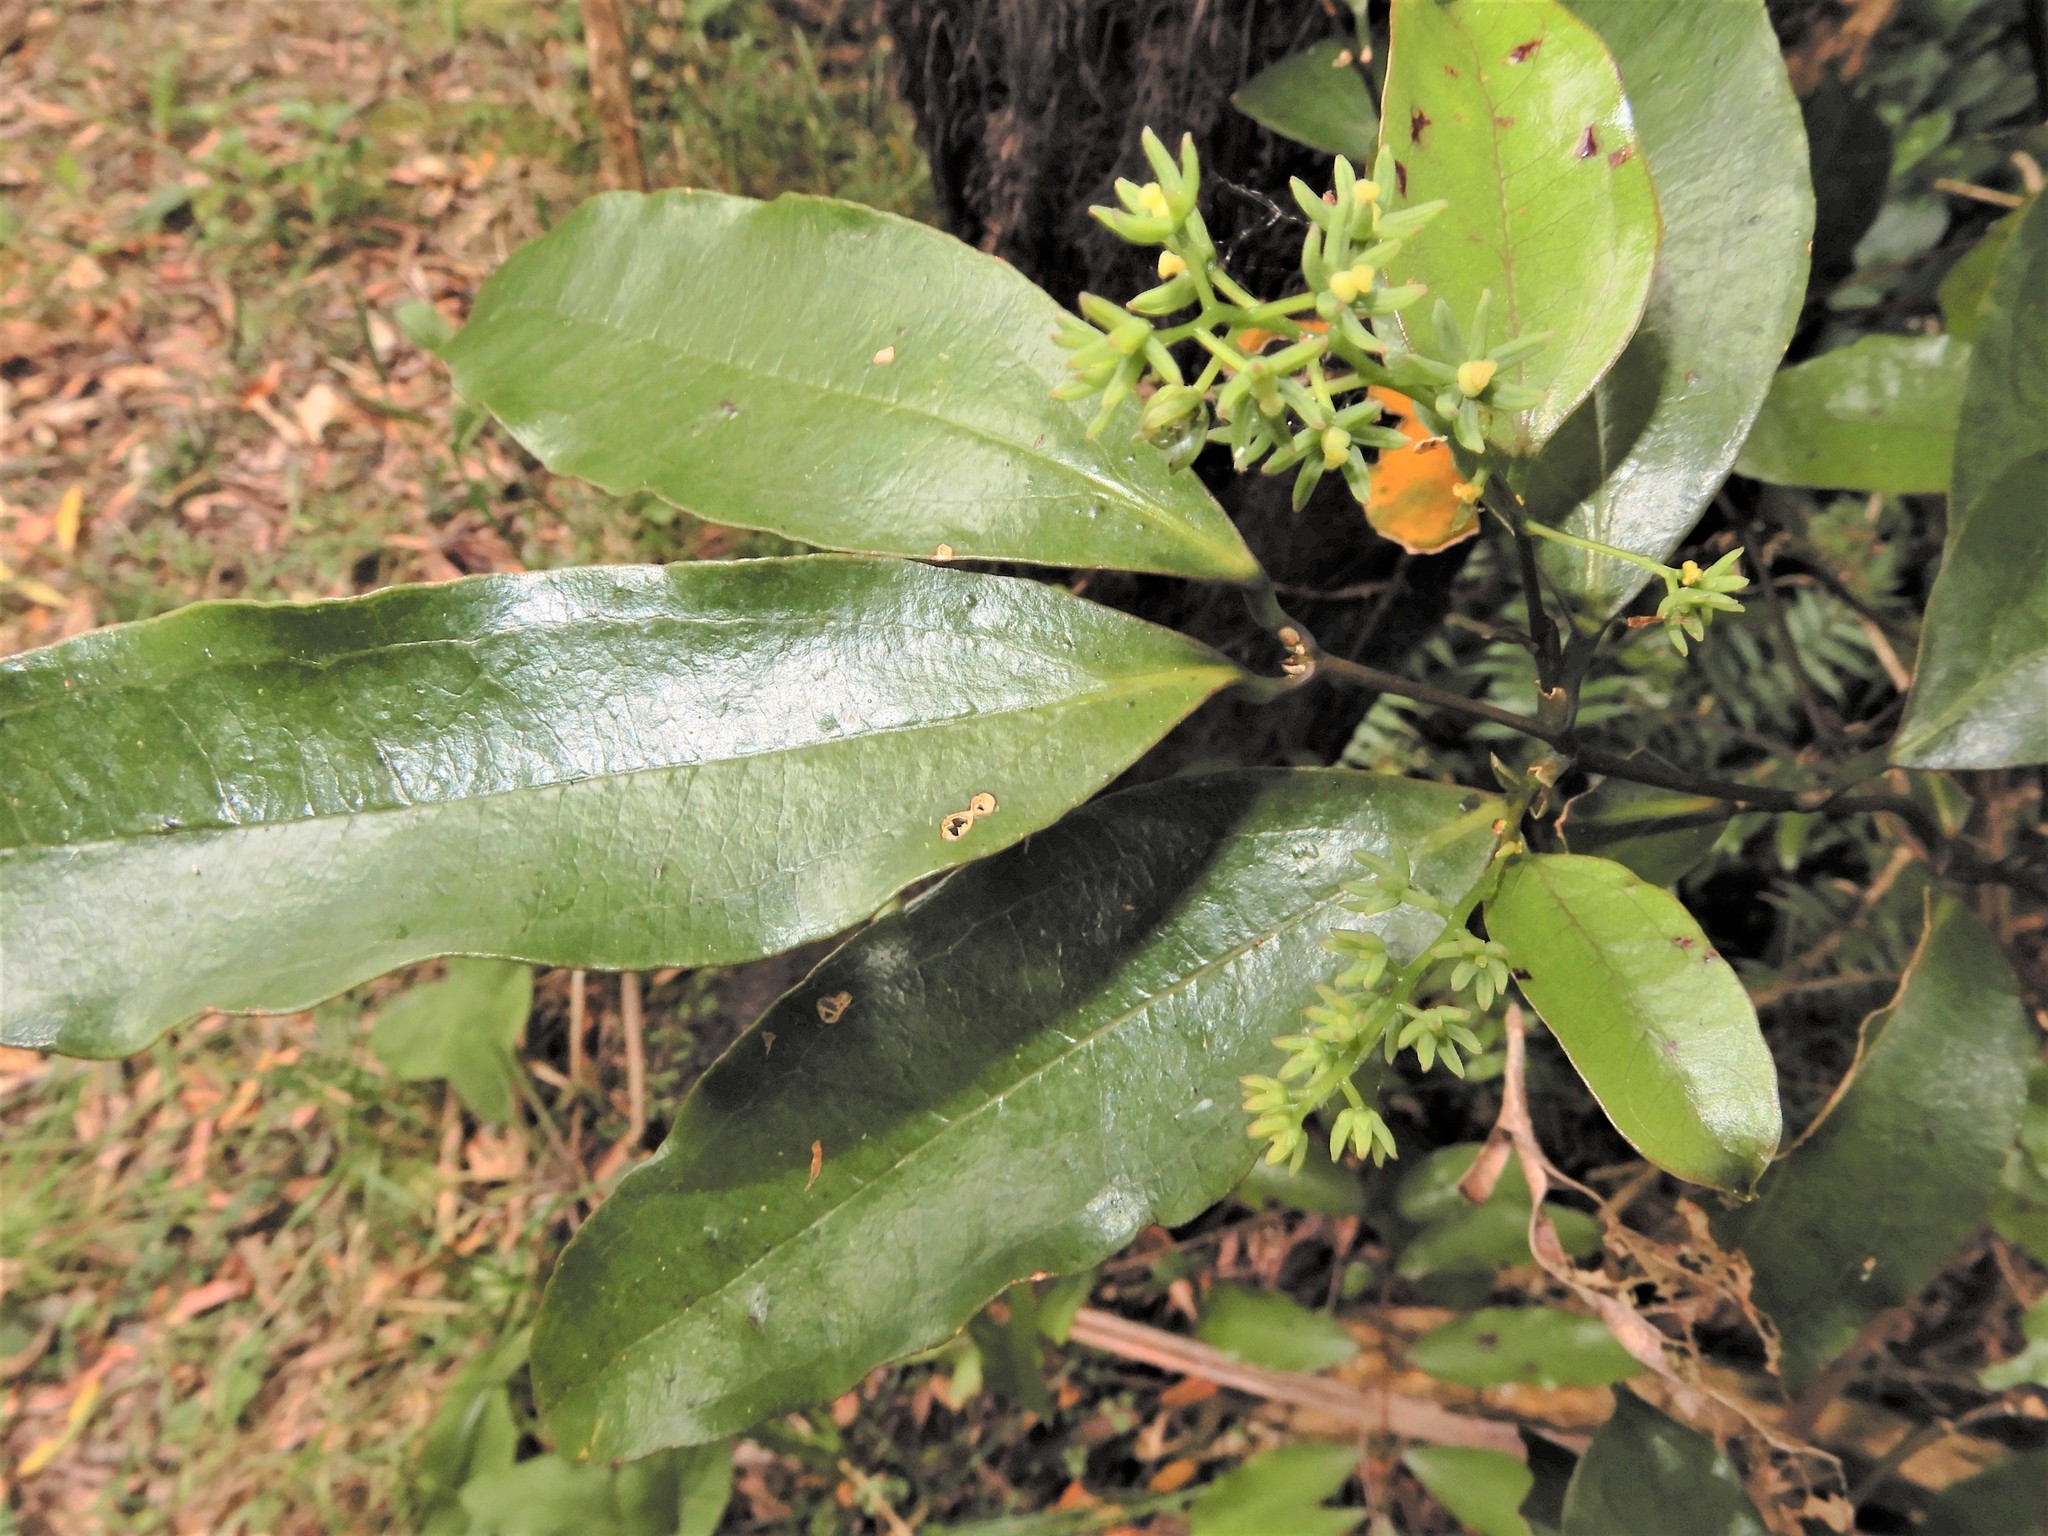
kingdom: Plantae
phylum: Tracheophyta
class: Liliopsida
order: Liliales
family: Ripogonaceae
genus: Ripogonum
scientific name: Ripogonum scandens
